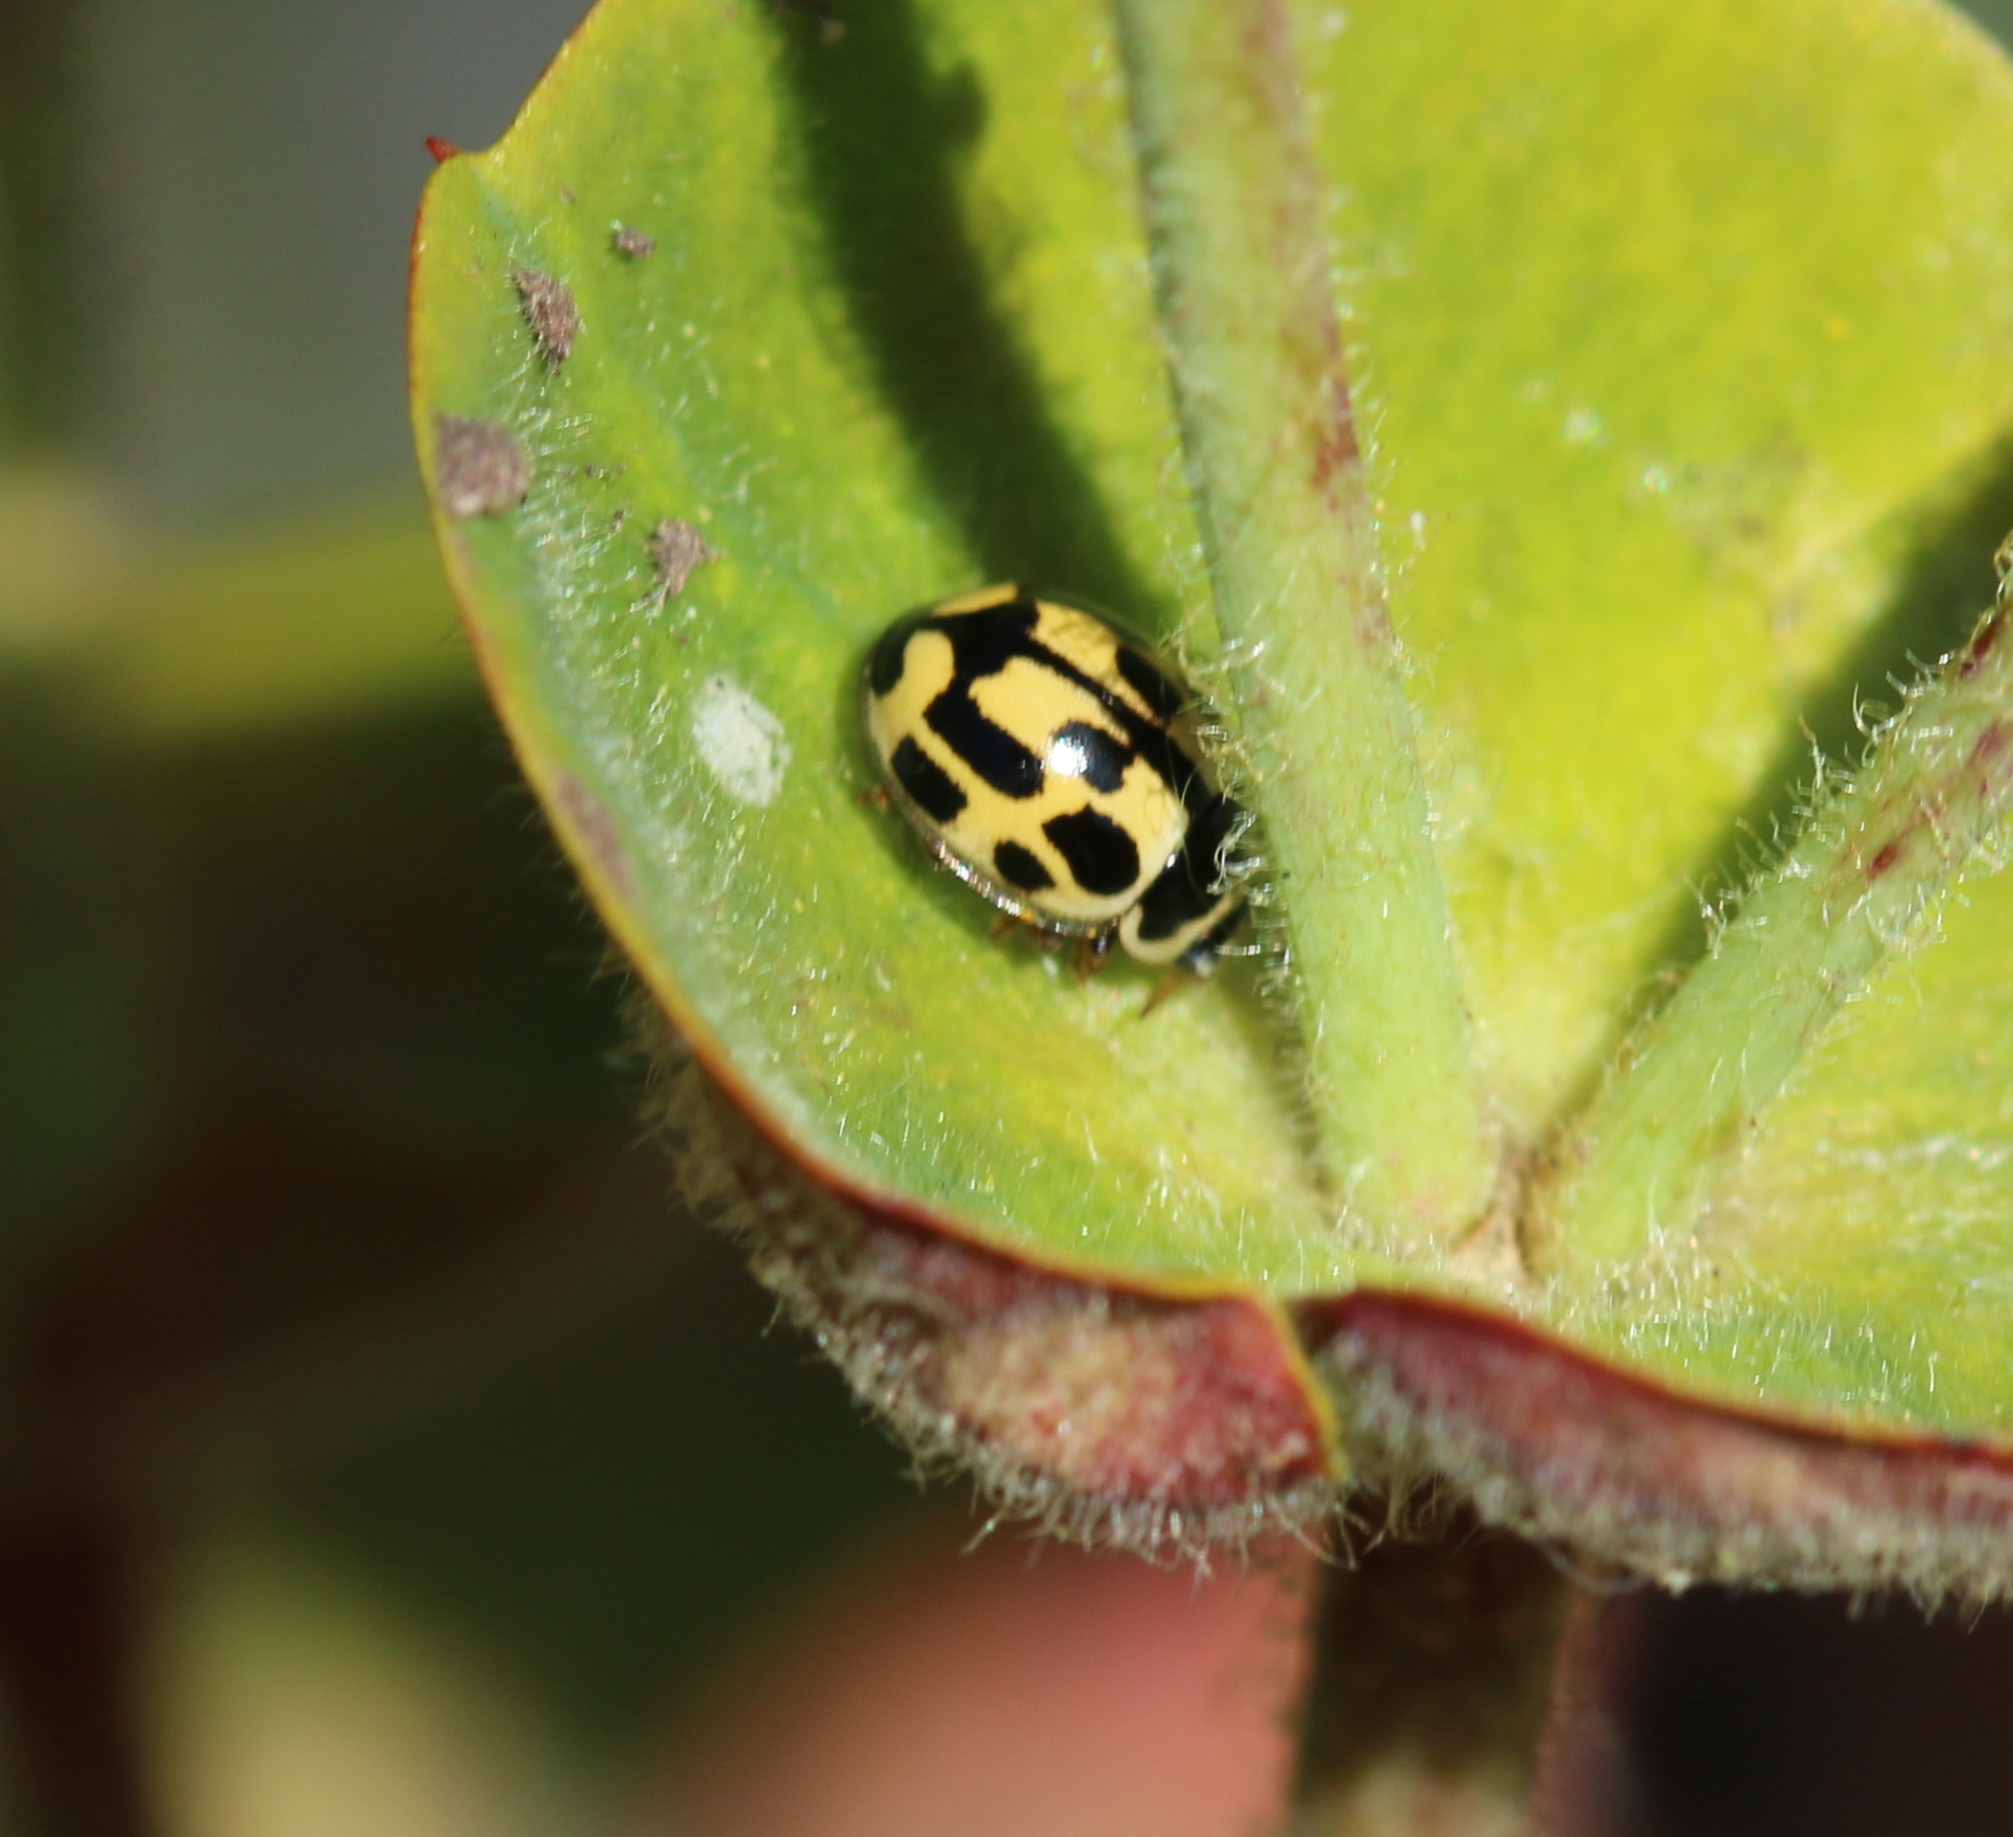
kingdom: Animalia
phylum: Arthropoda
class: Insecta
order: Coleoptera
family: Coccinellidae
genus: Propylaea
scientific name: Propylaea quatuordecimpunctata
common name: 14-spotted ladybird beetle
